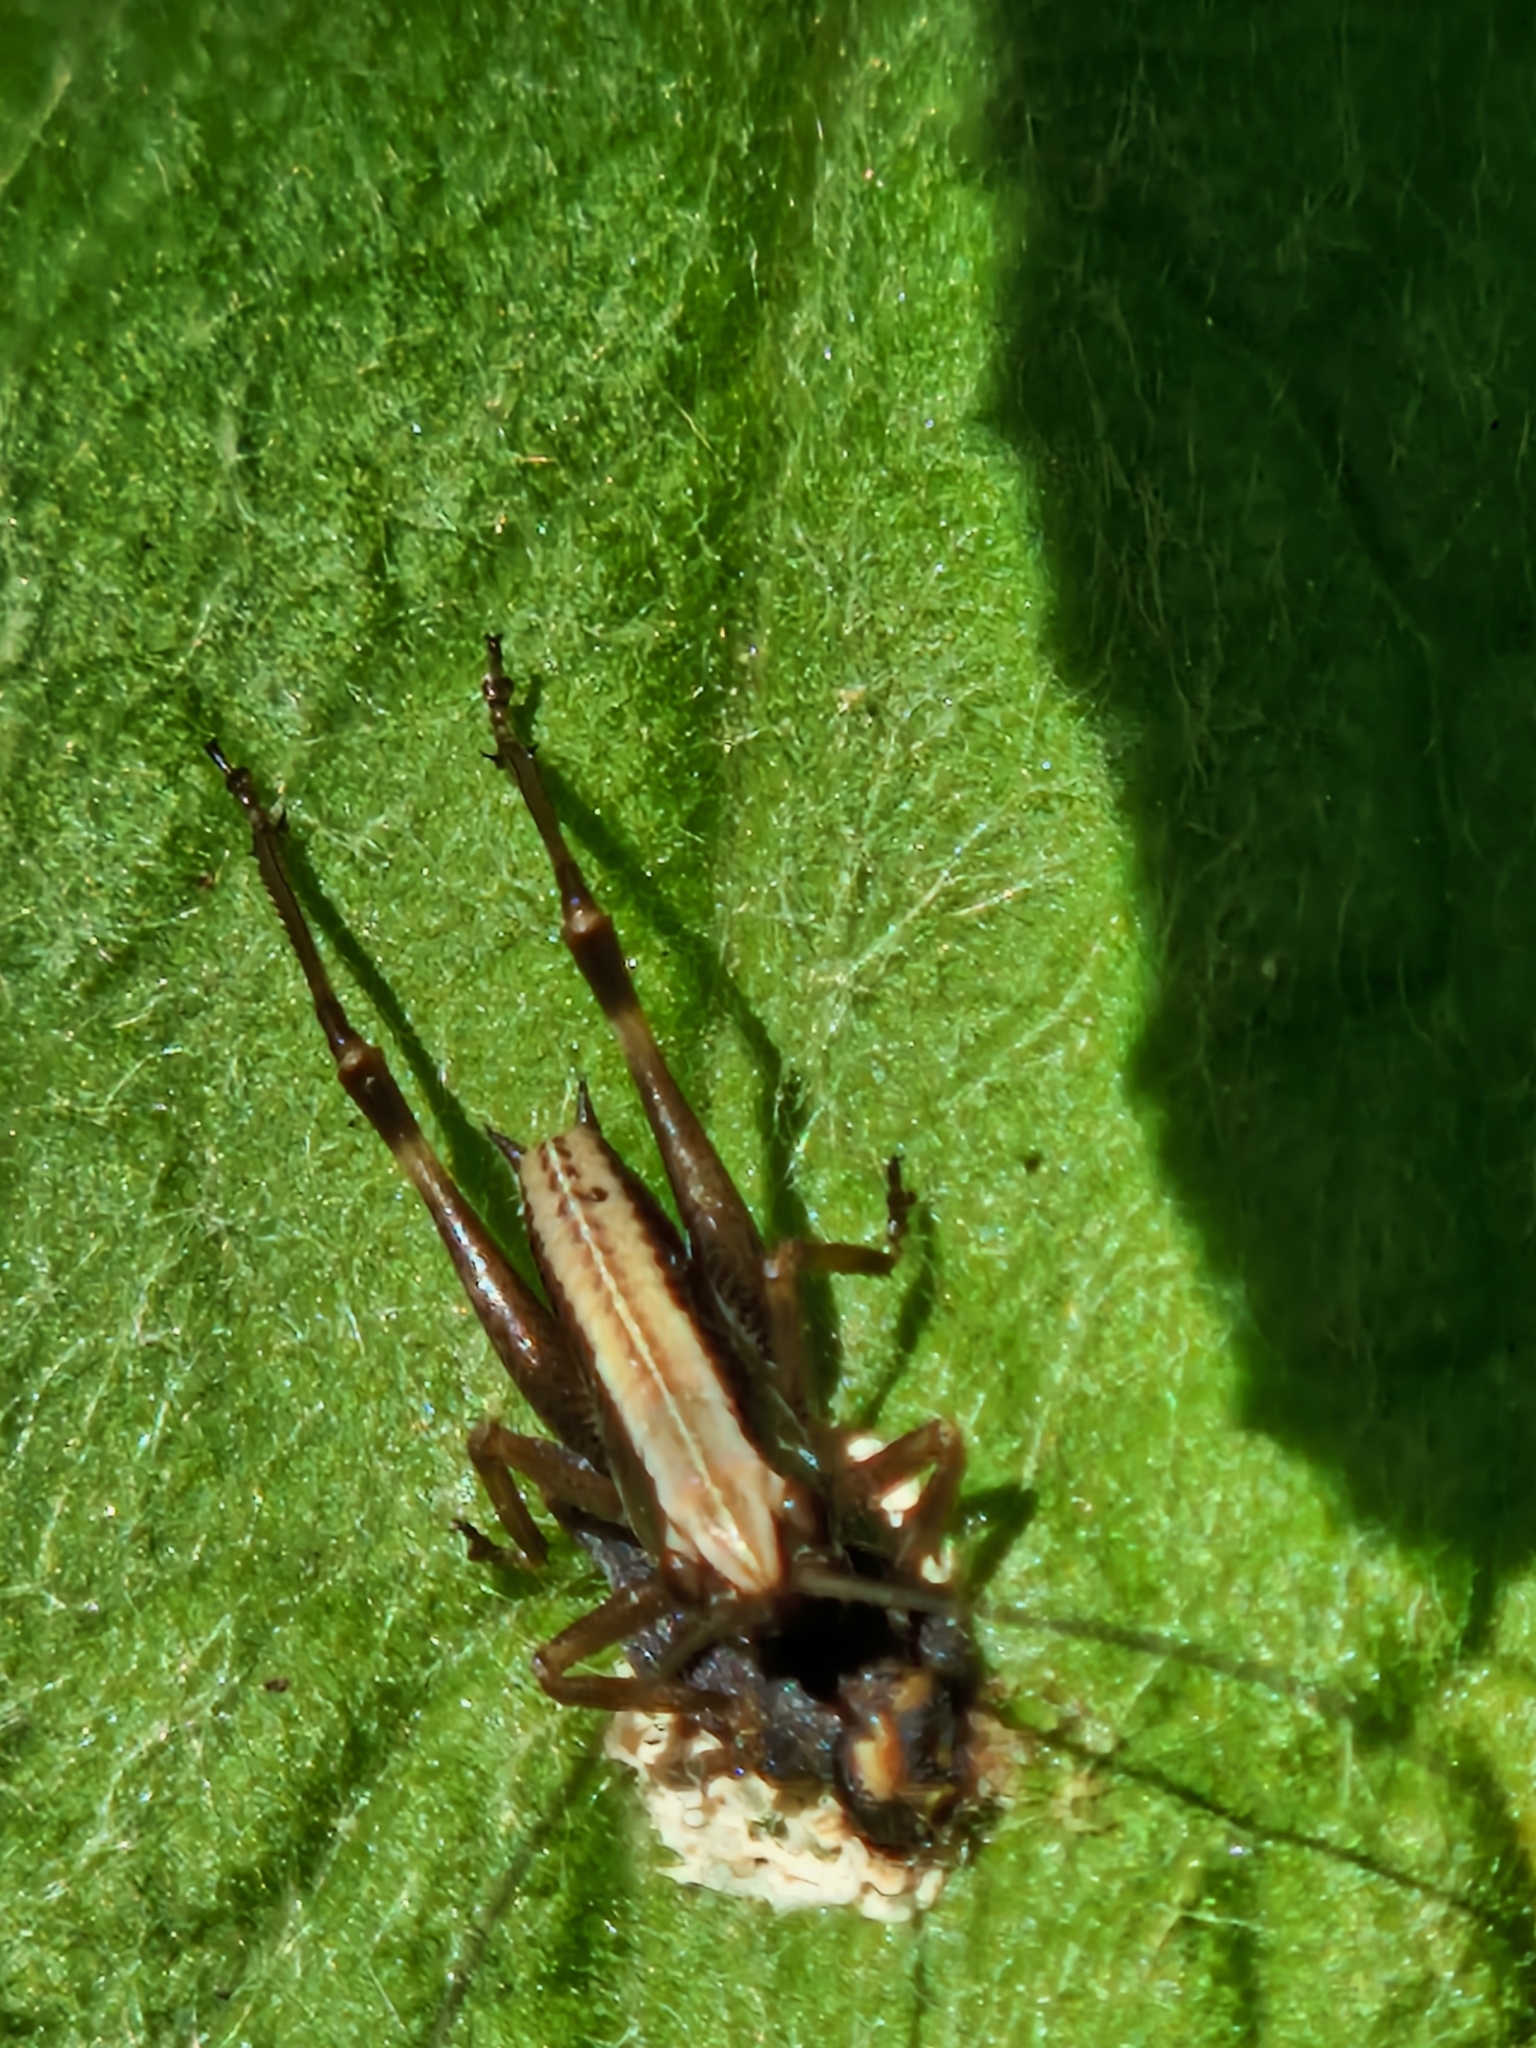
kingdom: Animalia
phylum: Arthropoda
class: Insecta
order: Orthoptera
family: Tettigoniidae
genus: Pholidoptera
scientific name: Pholidoptera griseoaptera
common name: Dark bush-cricket
